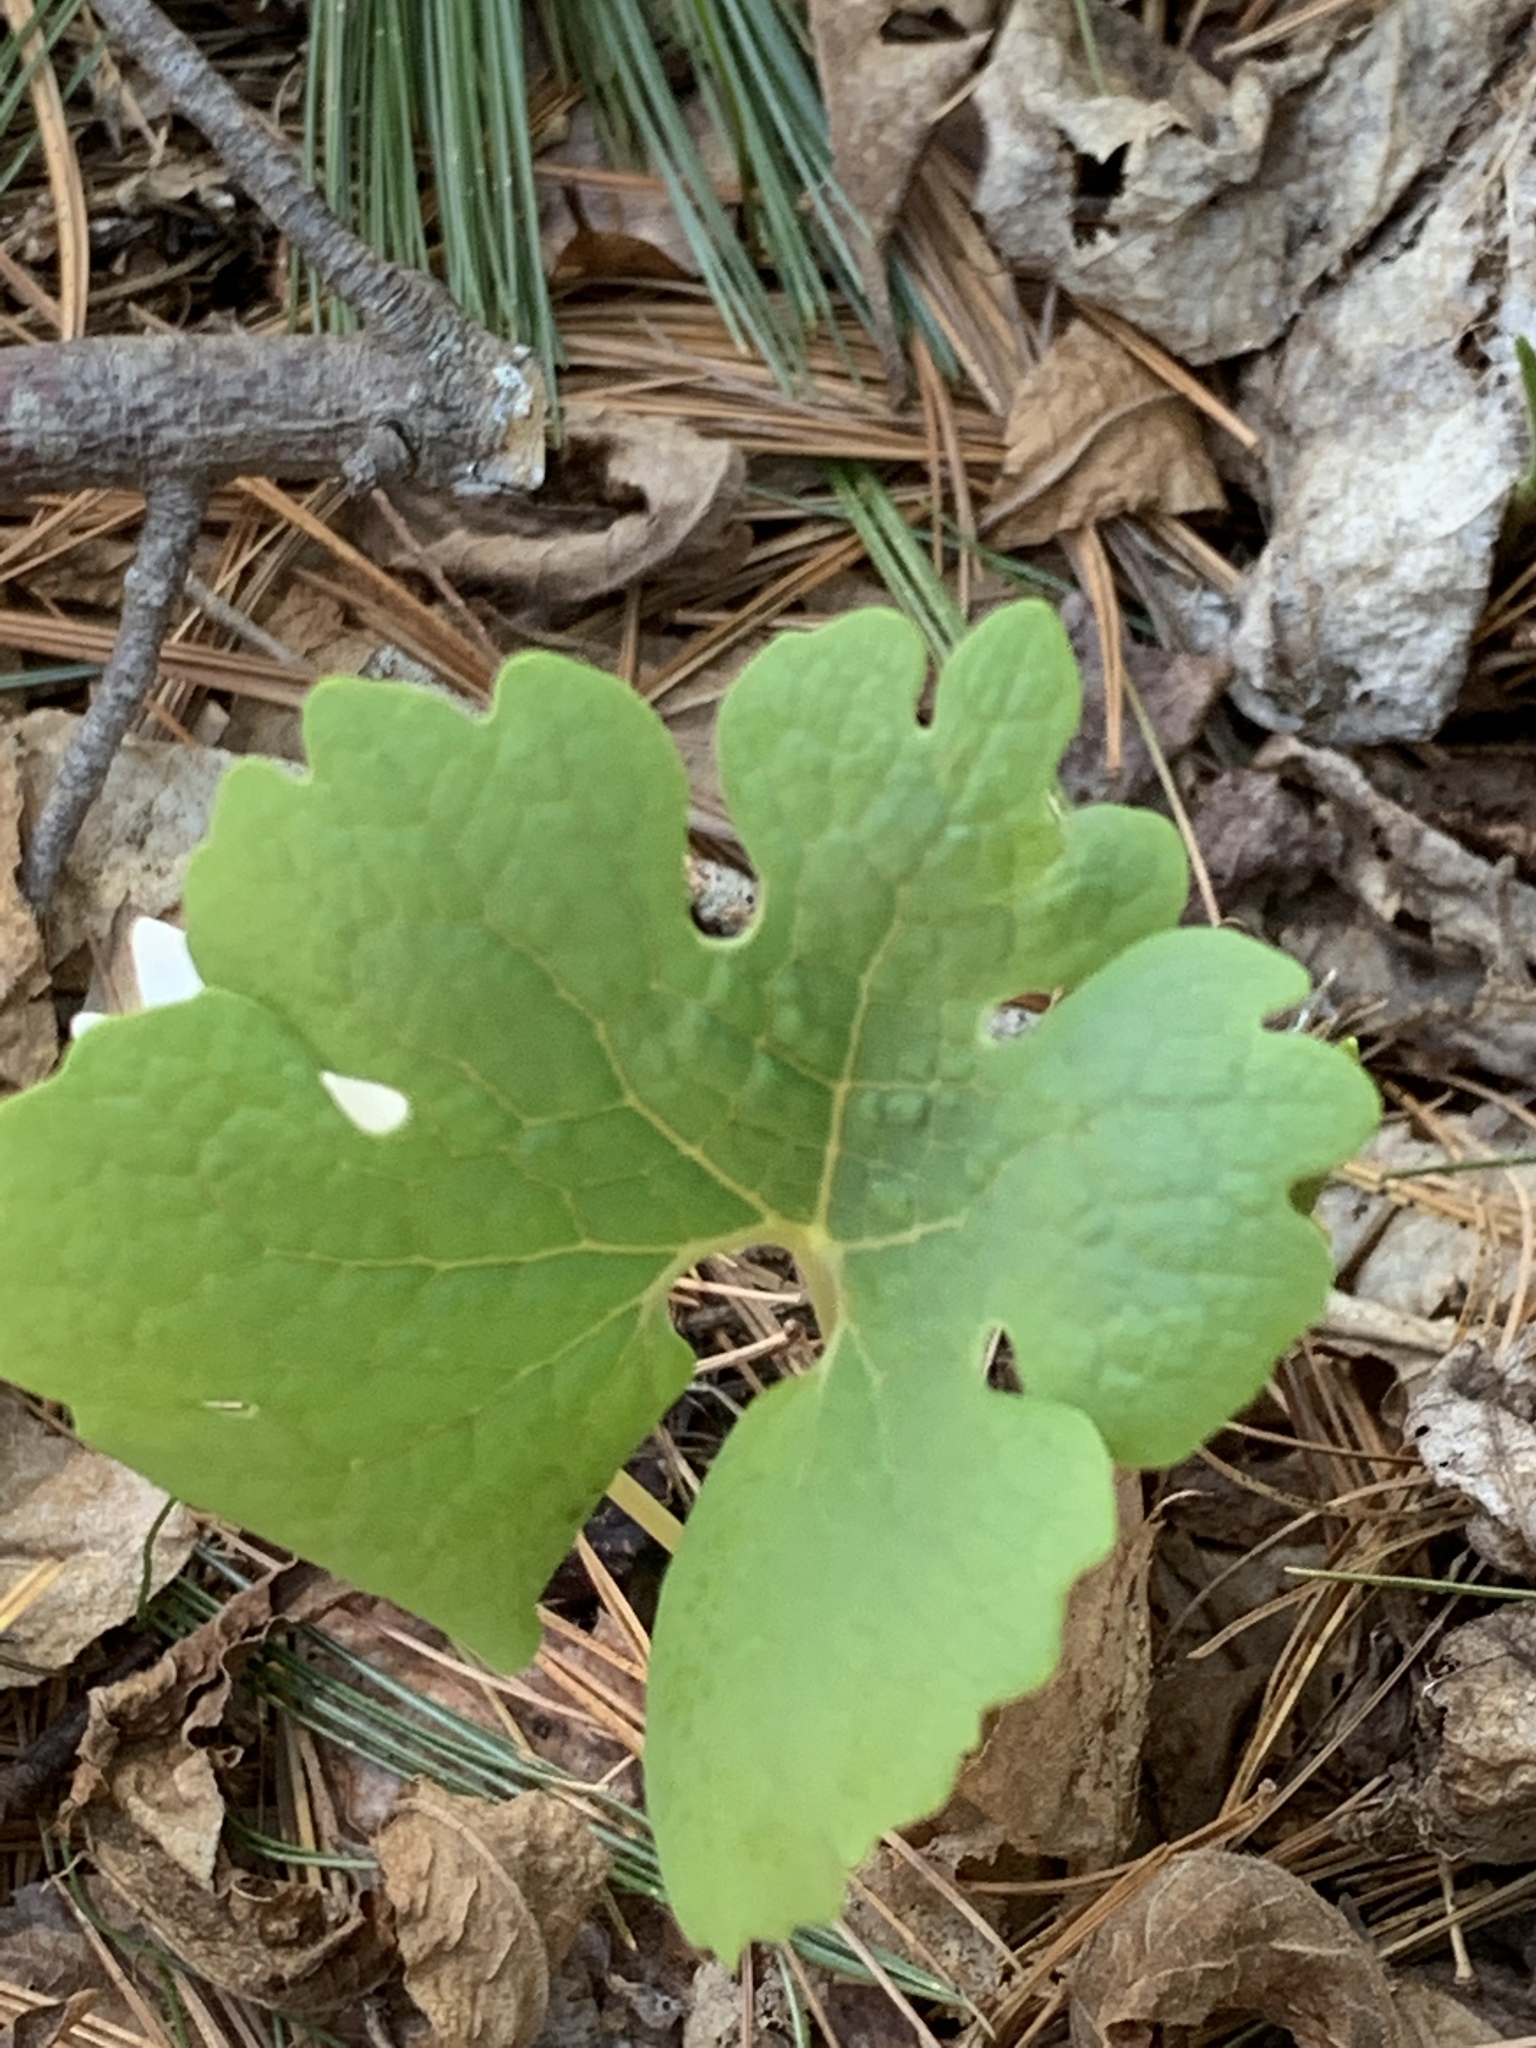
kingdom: Plantae
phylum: Tracheophyta
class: Magnoliopsida
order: Ranunculales
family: Papaveraceae
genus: Sanguinaria
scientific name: Sanguinaria canadensis
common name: Bloodroot
